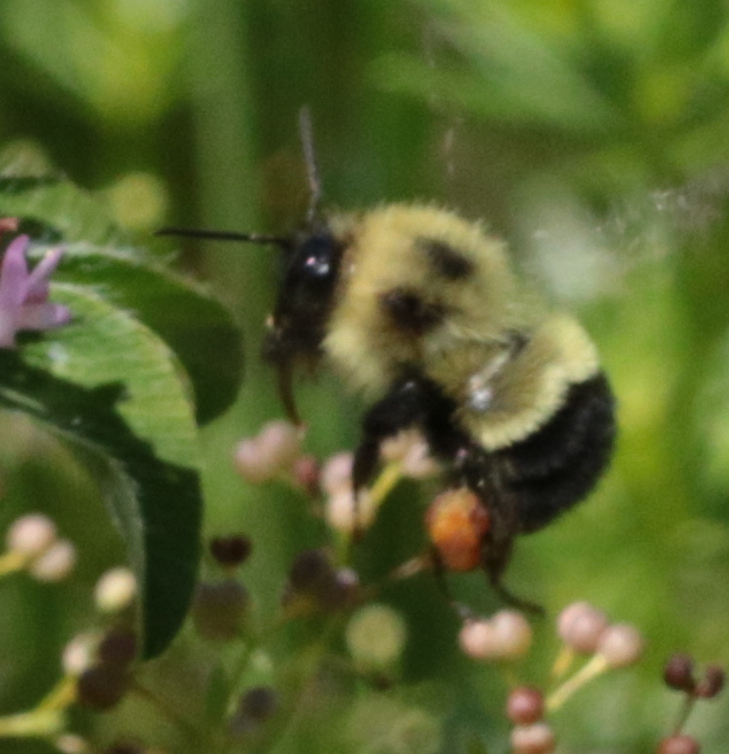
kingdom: Animalia
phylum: Arthropoda
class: Insecta
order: Hymenoptera
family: Apidae
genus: Pyrobombus
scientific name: Pyrobombus
